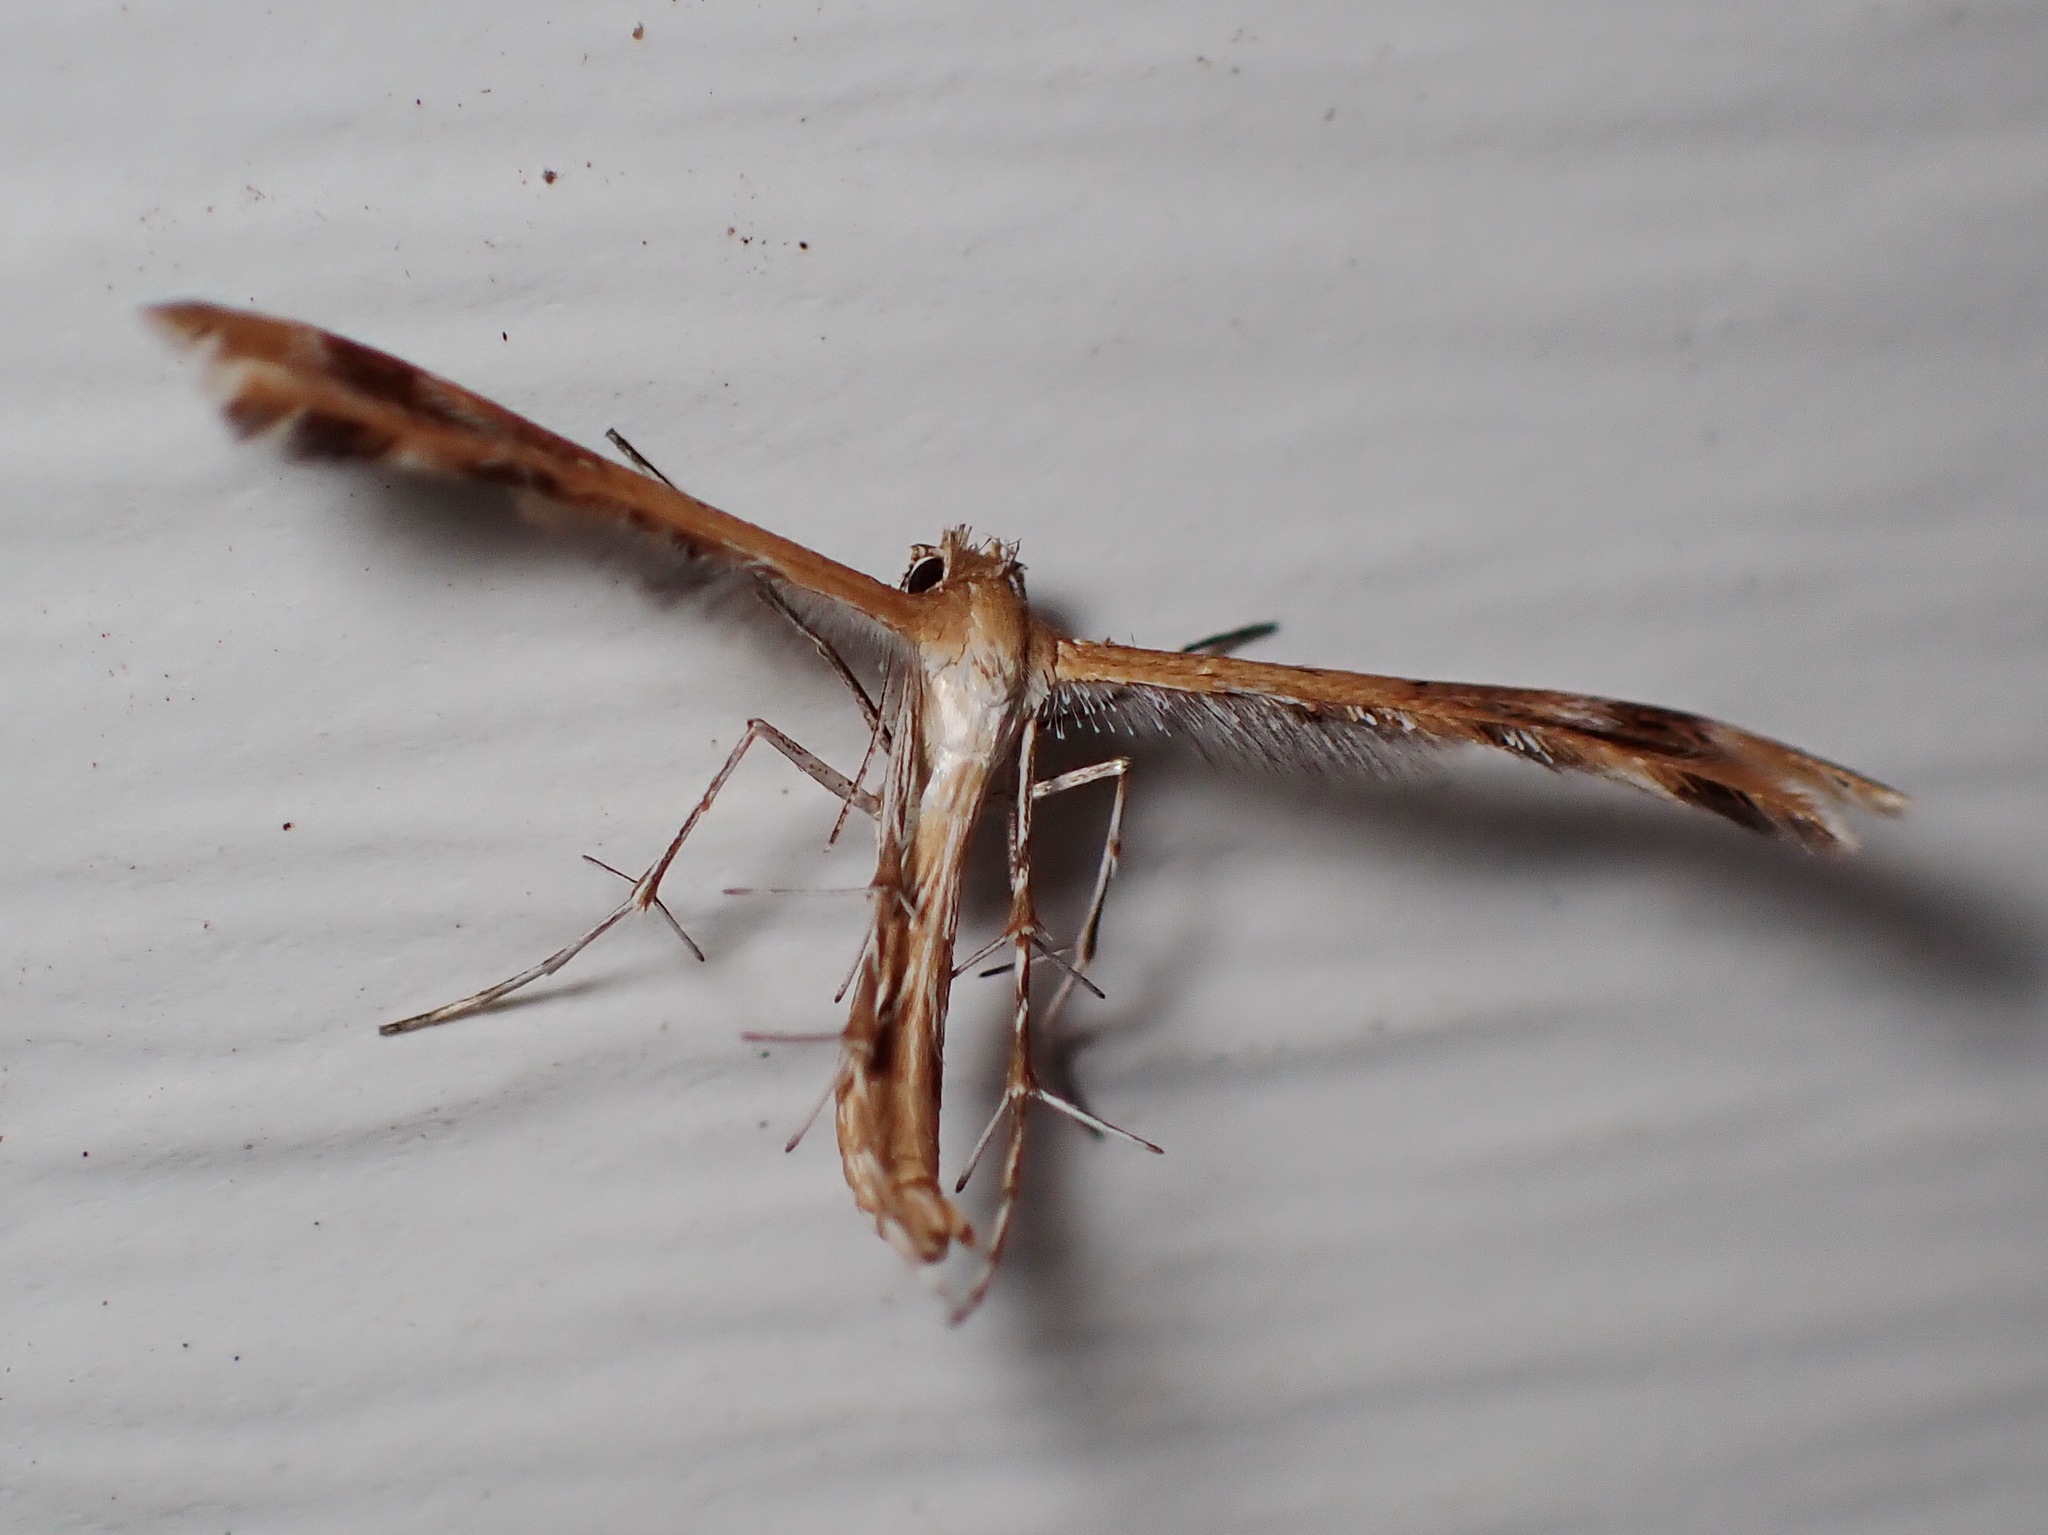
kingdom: Animalia
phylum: Arthropoda
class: Insecta
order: Lepidoptera
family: Pterophoridae
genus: Megalorhipida
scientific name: Megalorhipida leucodactylus
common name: Plume moth
